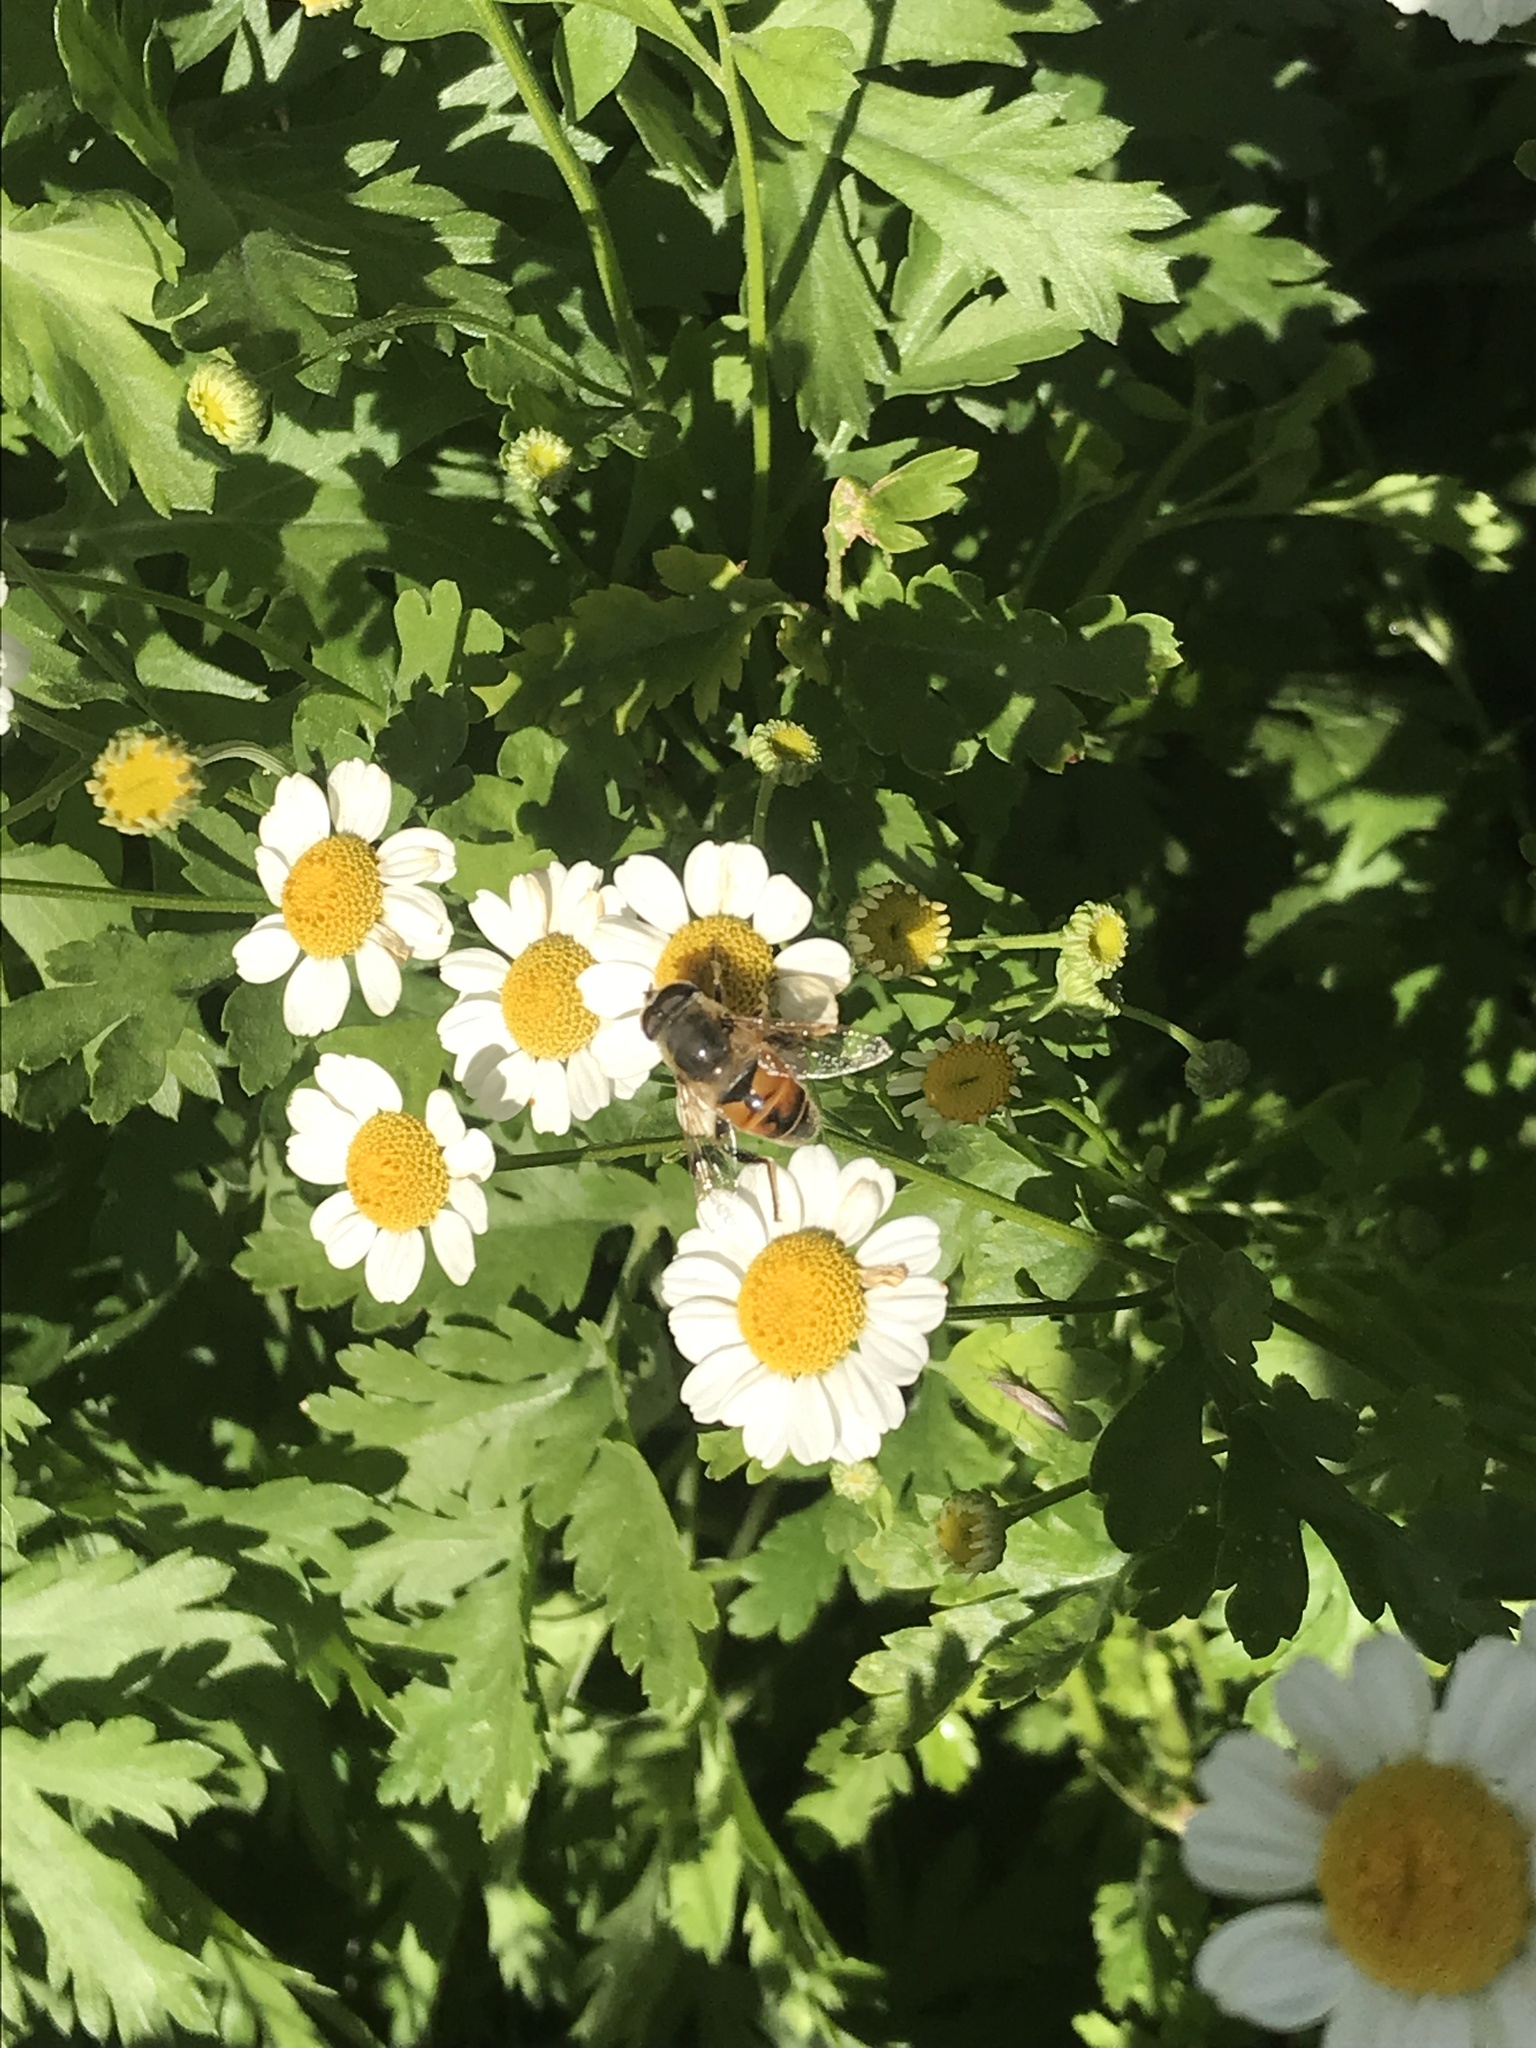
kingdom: Animalia
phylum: Arthropoda
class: Insecta
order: Diptera
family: Syrphidae
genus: Eristalis
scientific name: Eristalis tenax
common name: Drone fly
